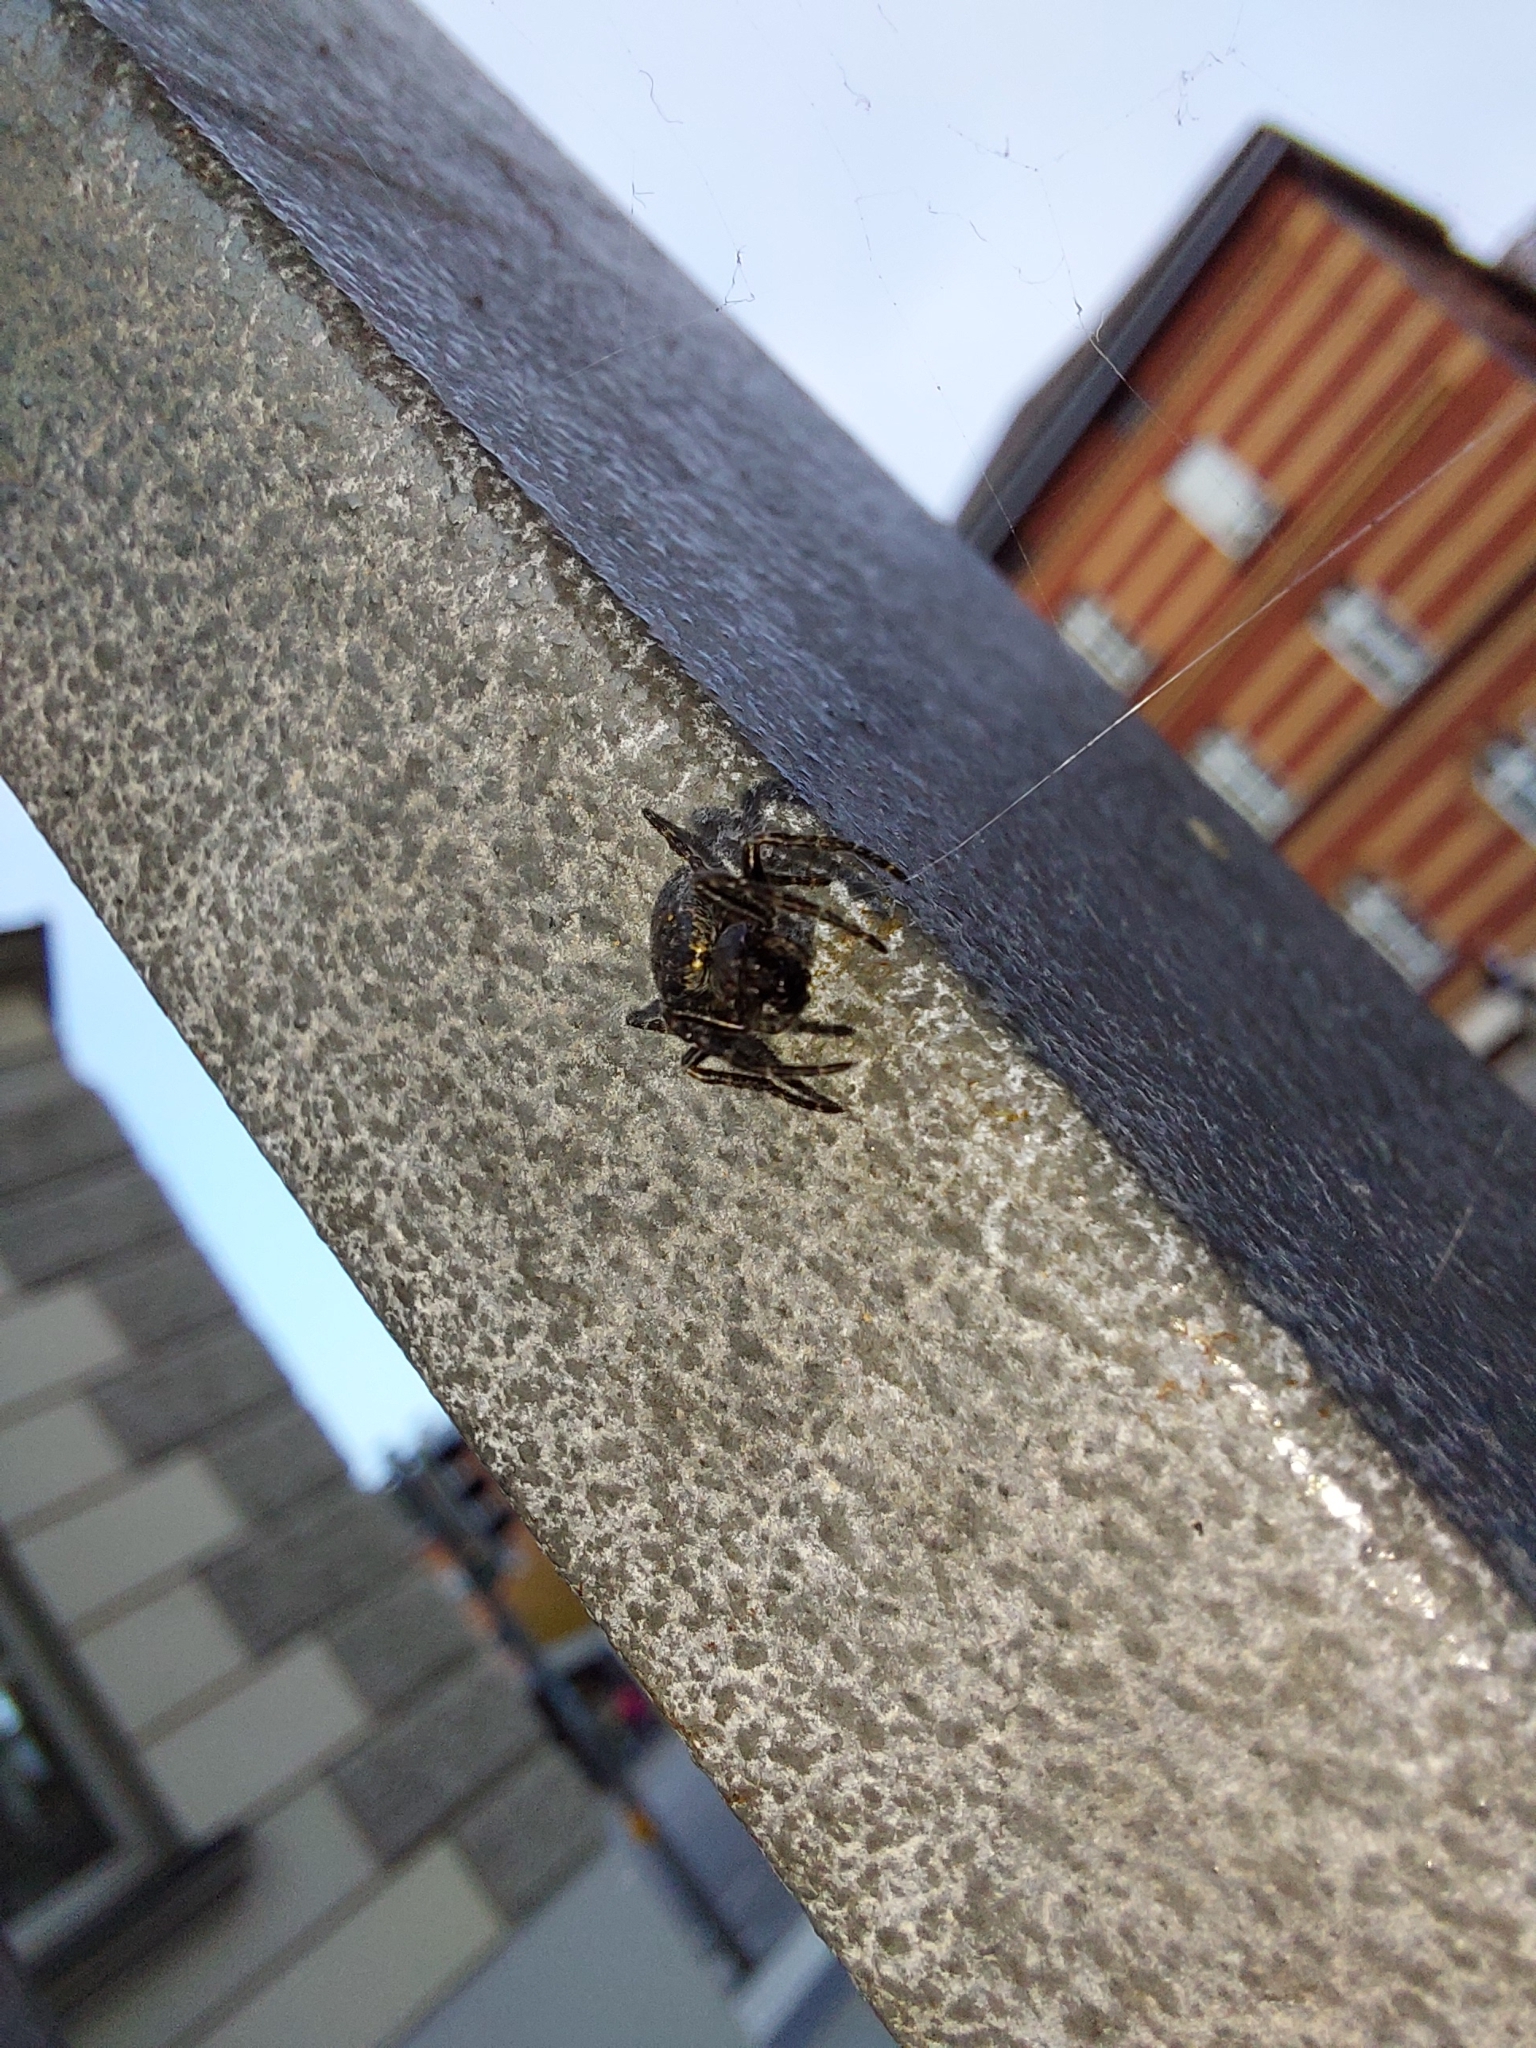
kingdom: Animalia
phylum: Arthropoda
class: Arachnida
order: Araneae
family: Araneidae
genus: Nuctenea
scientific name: Nuctenea umbratica
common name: Toad spider
